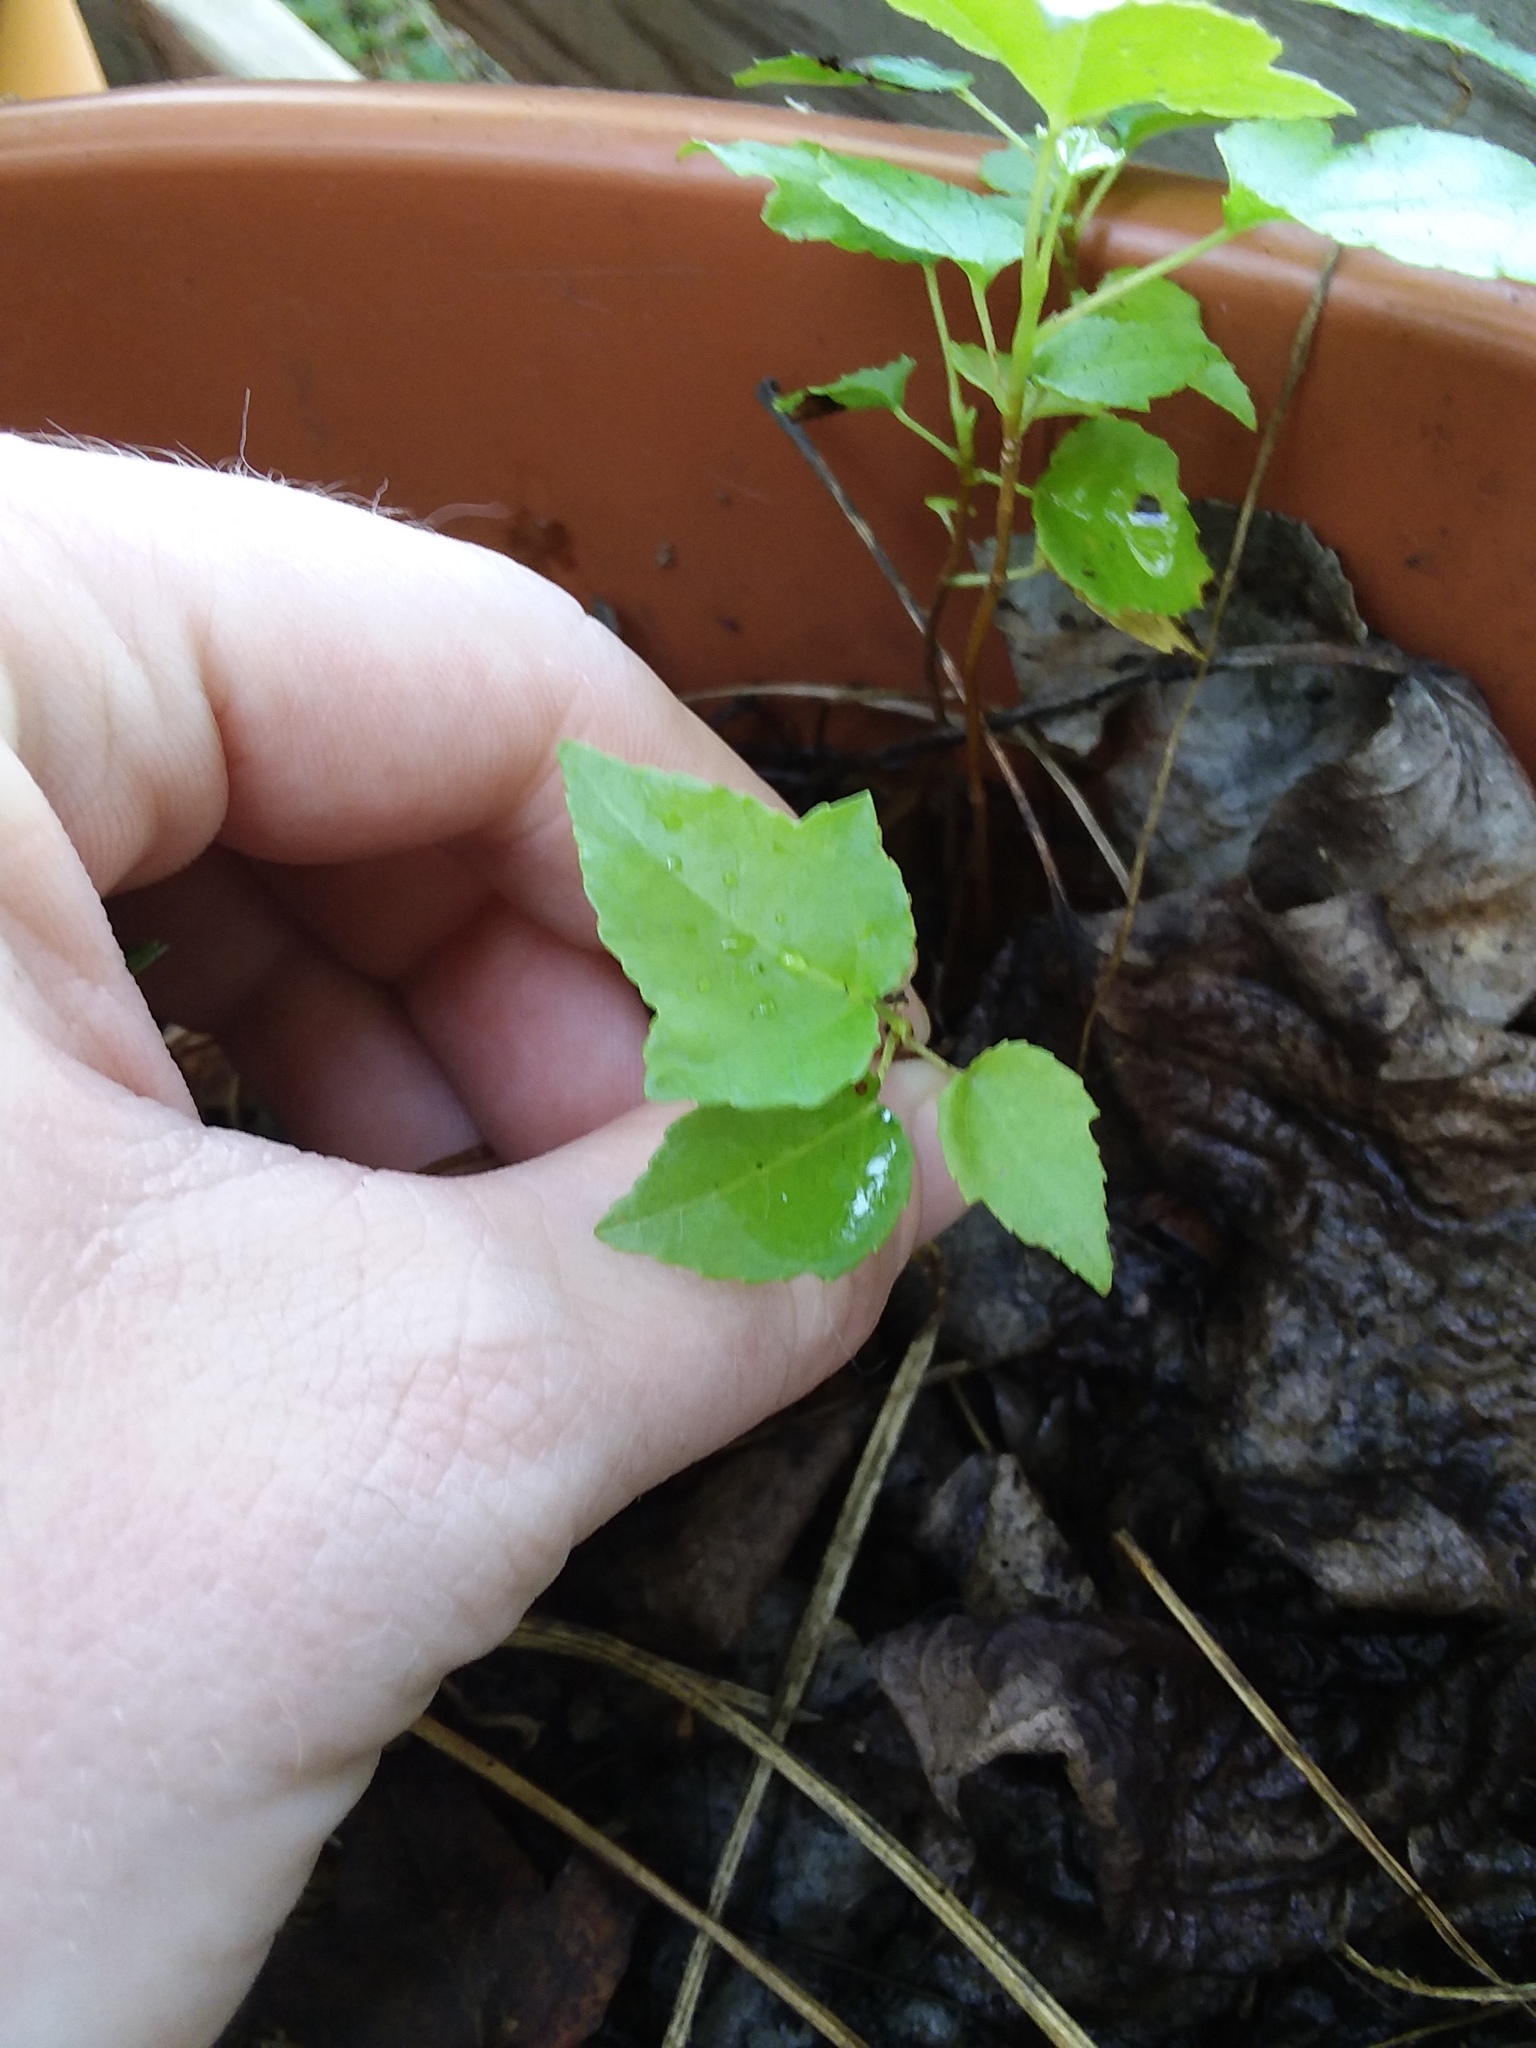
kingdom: Plantae
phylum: Tracheophyta
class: Magnoliopsida
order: Saxifragales
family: Altingiaceae
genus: Liquidambar
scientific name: Liquidambar styraciflua
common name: Sweet gum
